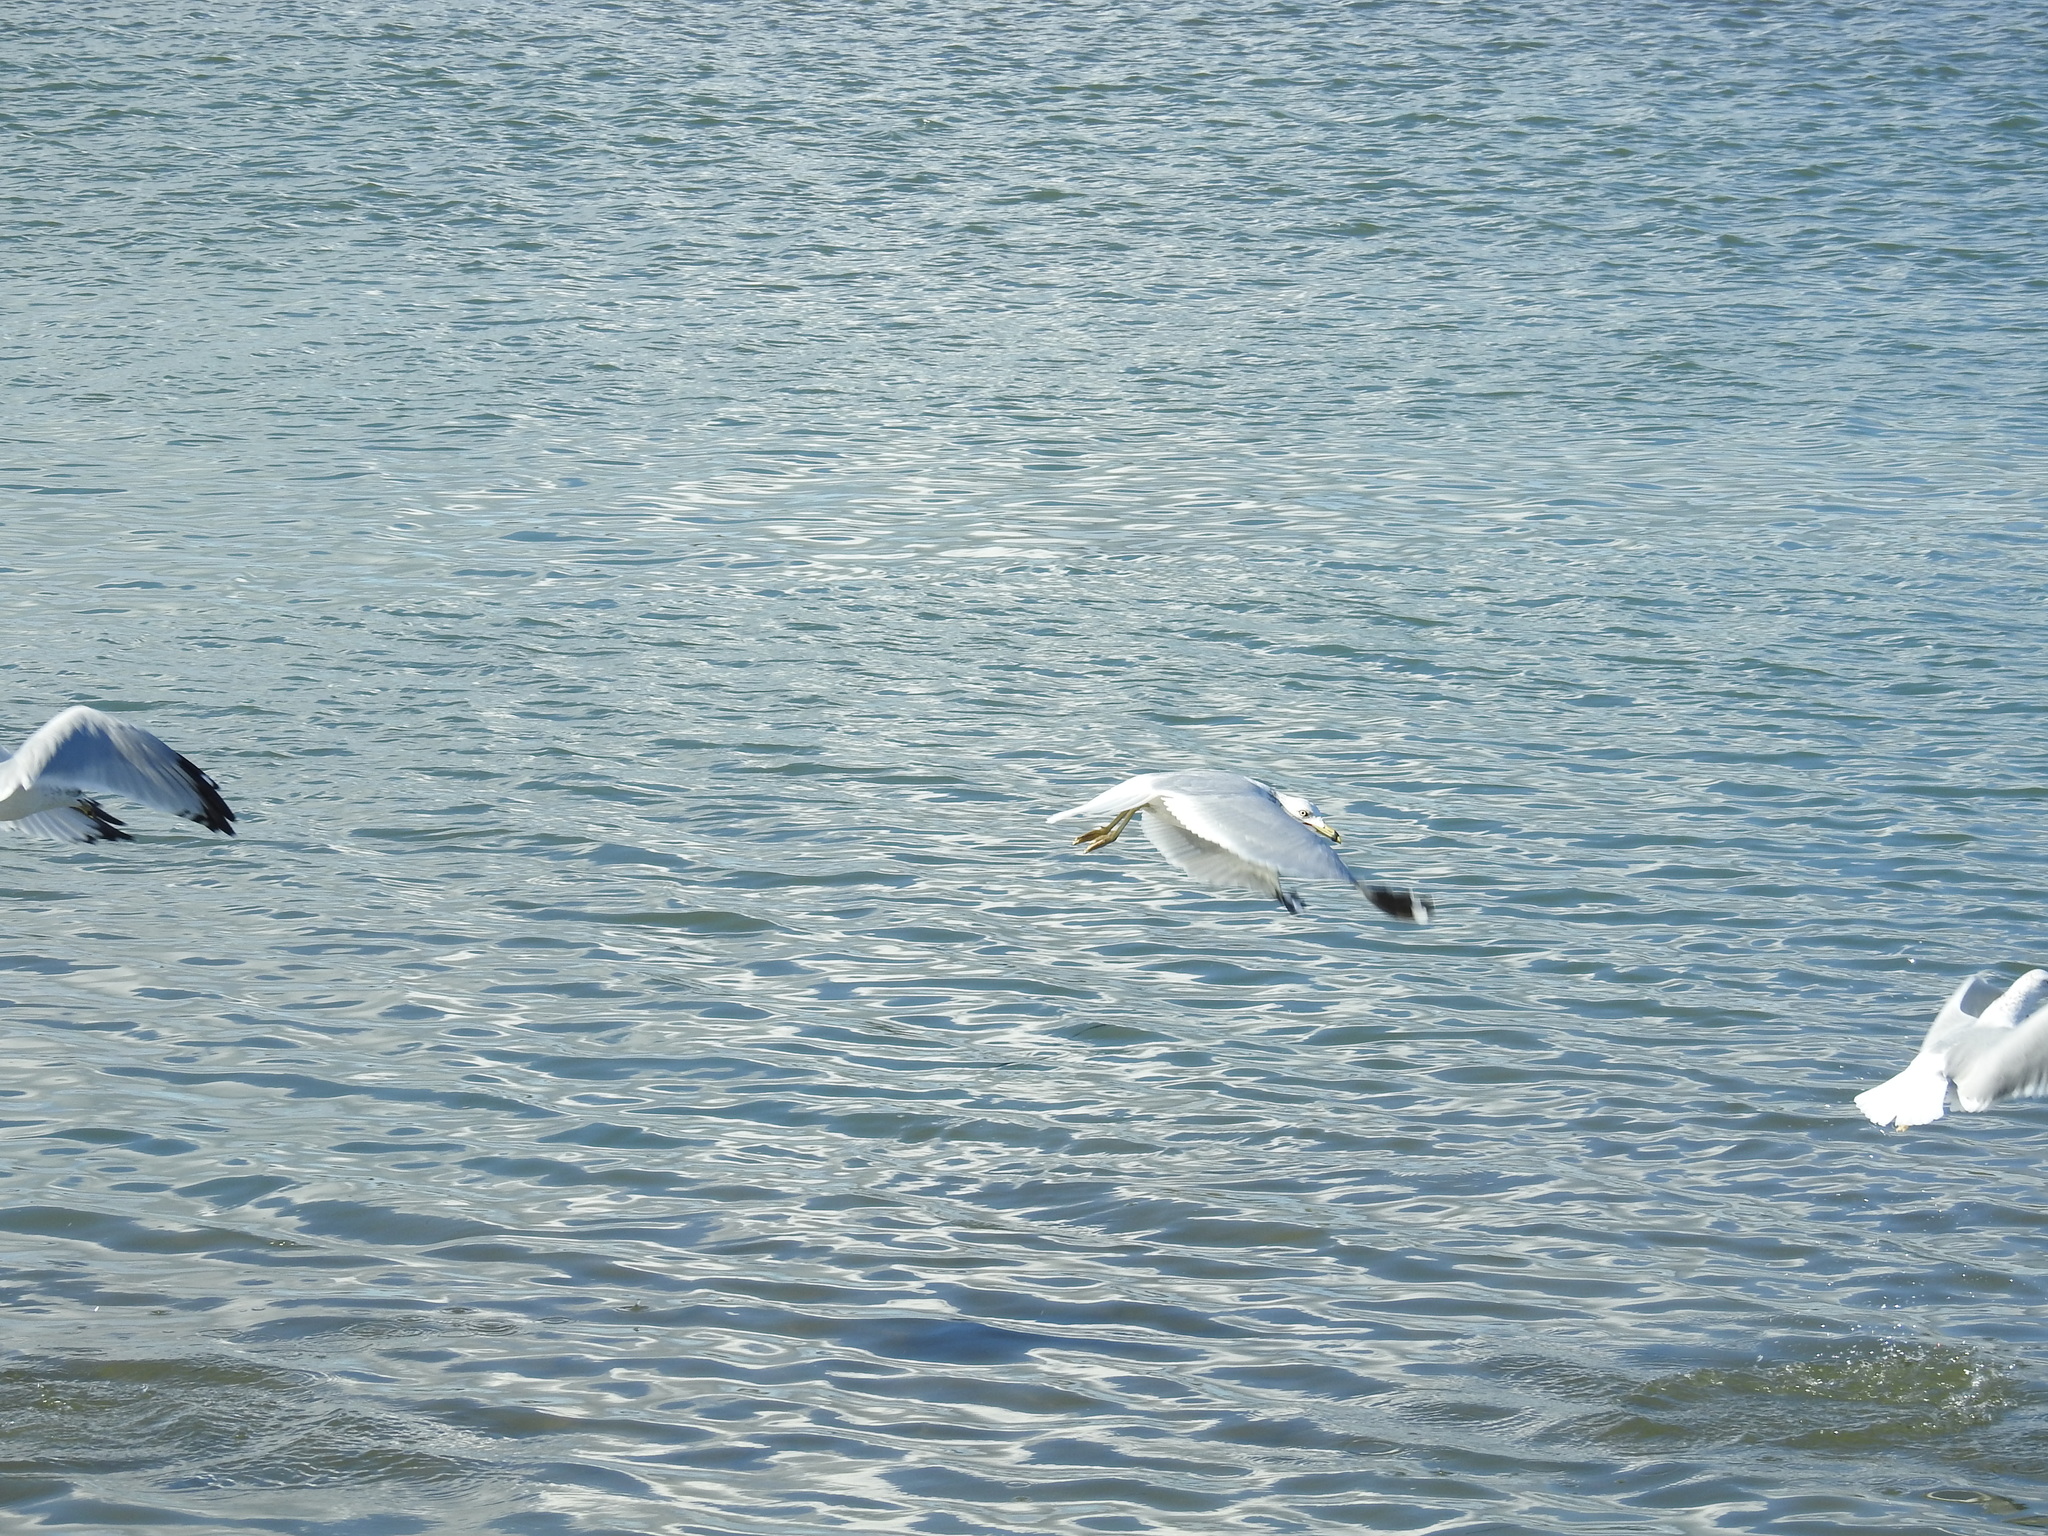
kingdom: Animalia
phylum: Chordata
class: Aves
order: Charadriiformes
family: Laridae
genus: Larus
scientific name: Larus delawarensis
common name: Ring-billed gull
